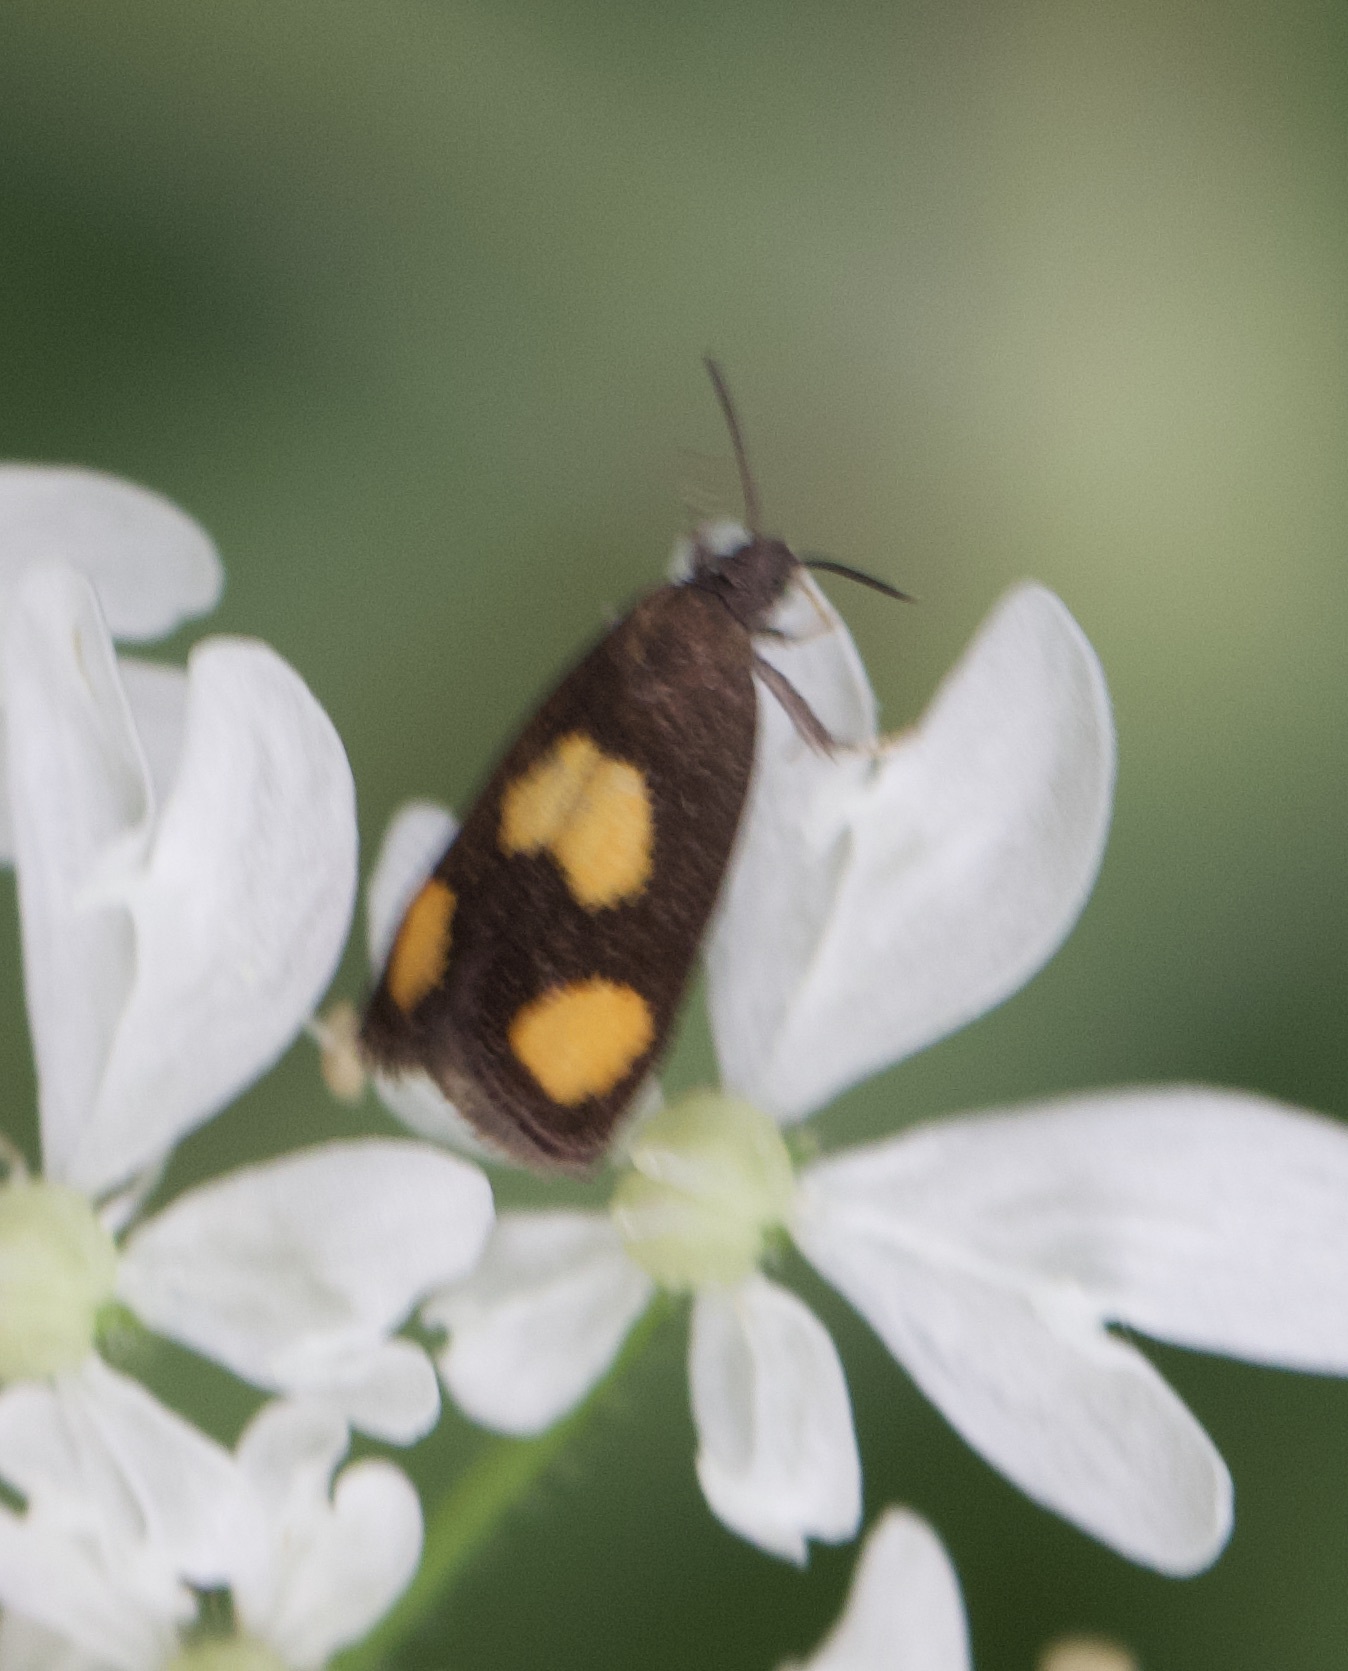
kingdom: Animalia
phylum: Arthropoda
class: Insecta
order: Lepidoptera
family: Tortricidae
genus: Pammene
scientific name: Pammene aurana
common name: Orange-spot piercer
